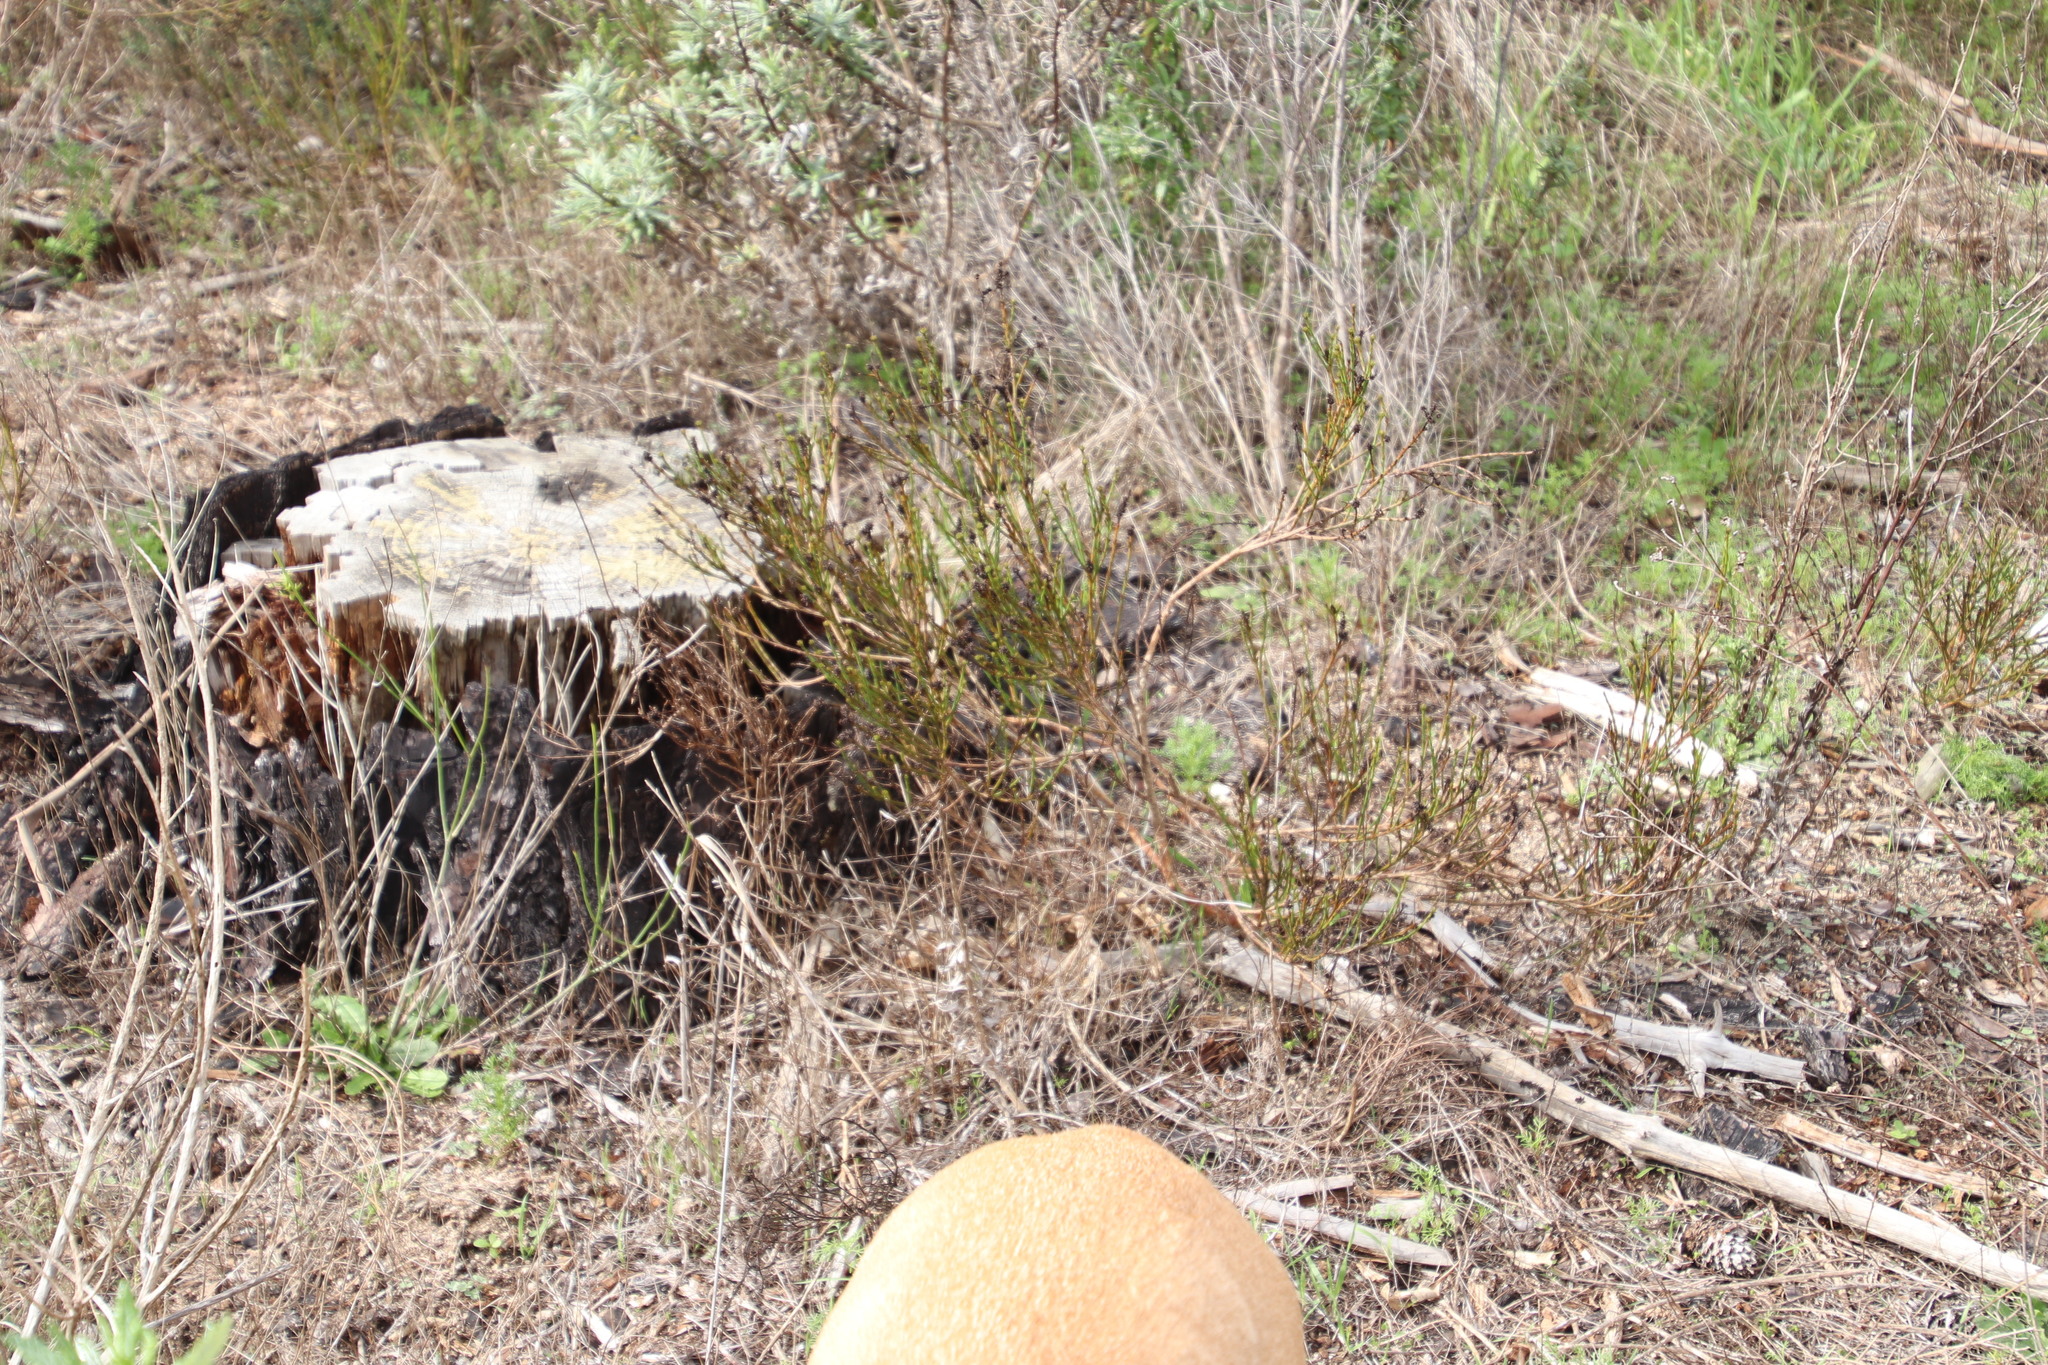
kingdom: Plantae
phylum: Tracheophyta
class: Magnoliopsida
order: Santalales
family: Thesiaceae
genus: Thesium
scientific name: Thesium aggregatum
